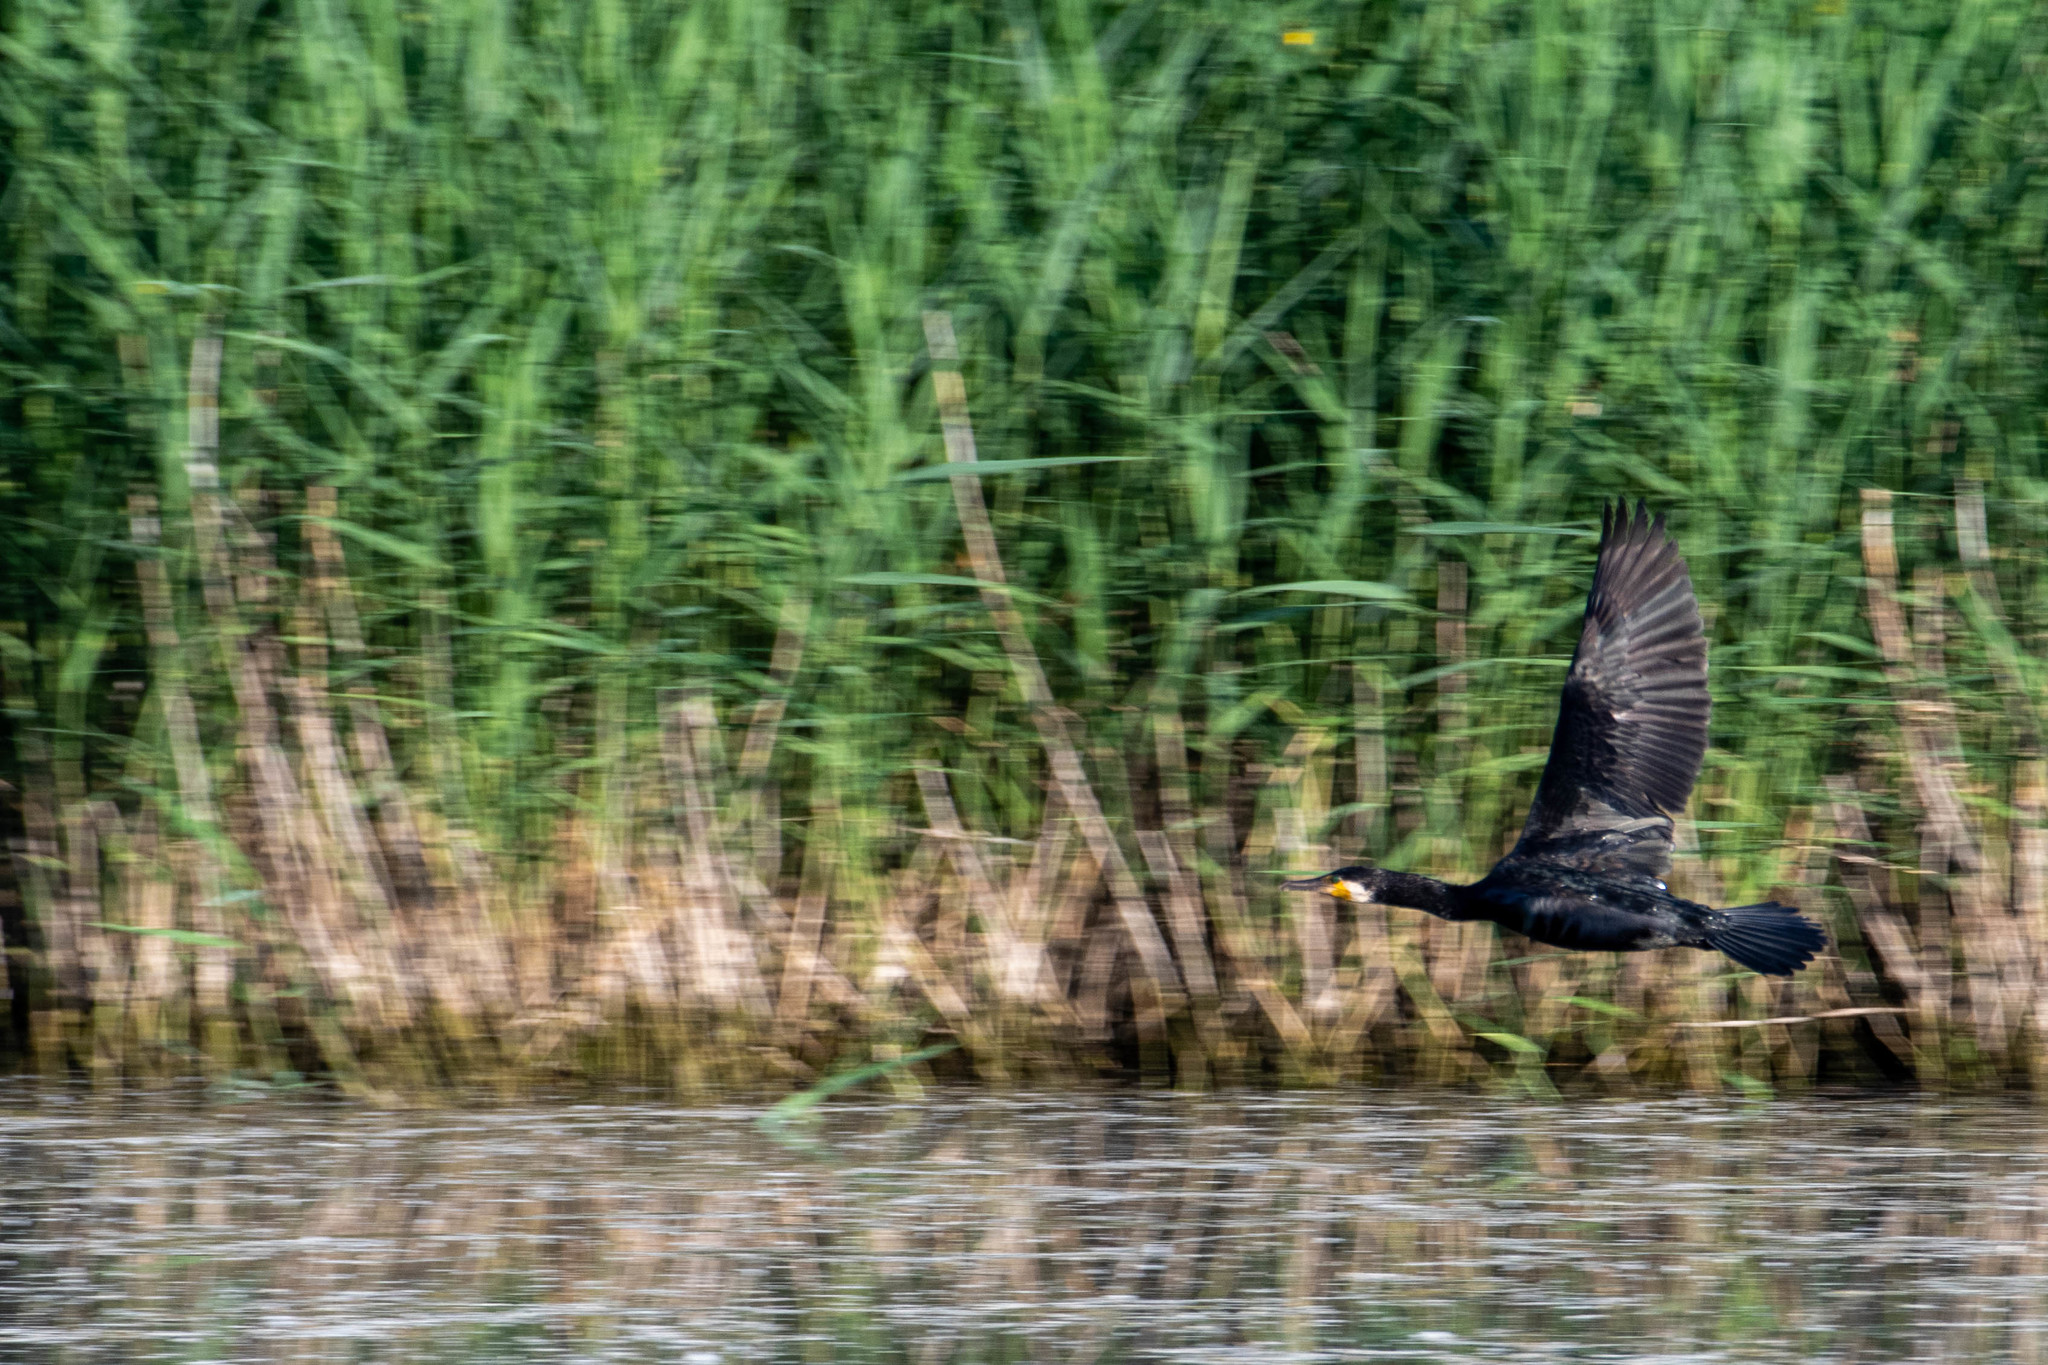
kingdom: Animalia
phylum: Chordata
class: Aves
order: Suliformes
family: Phalacrocoracidae
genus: Phalacrocorax
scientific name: Phalacrocorax carbo
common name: Great cormorant
